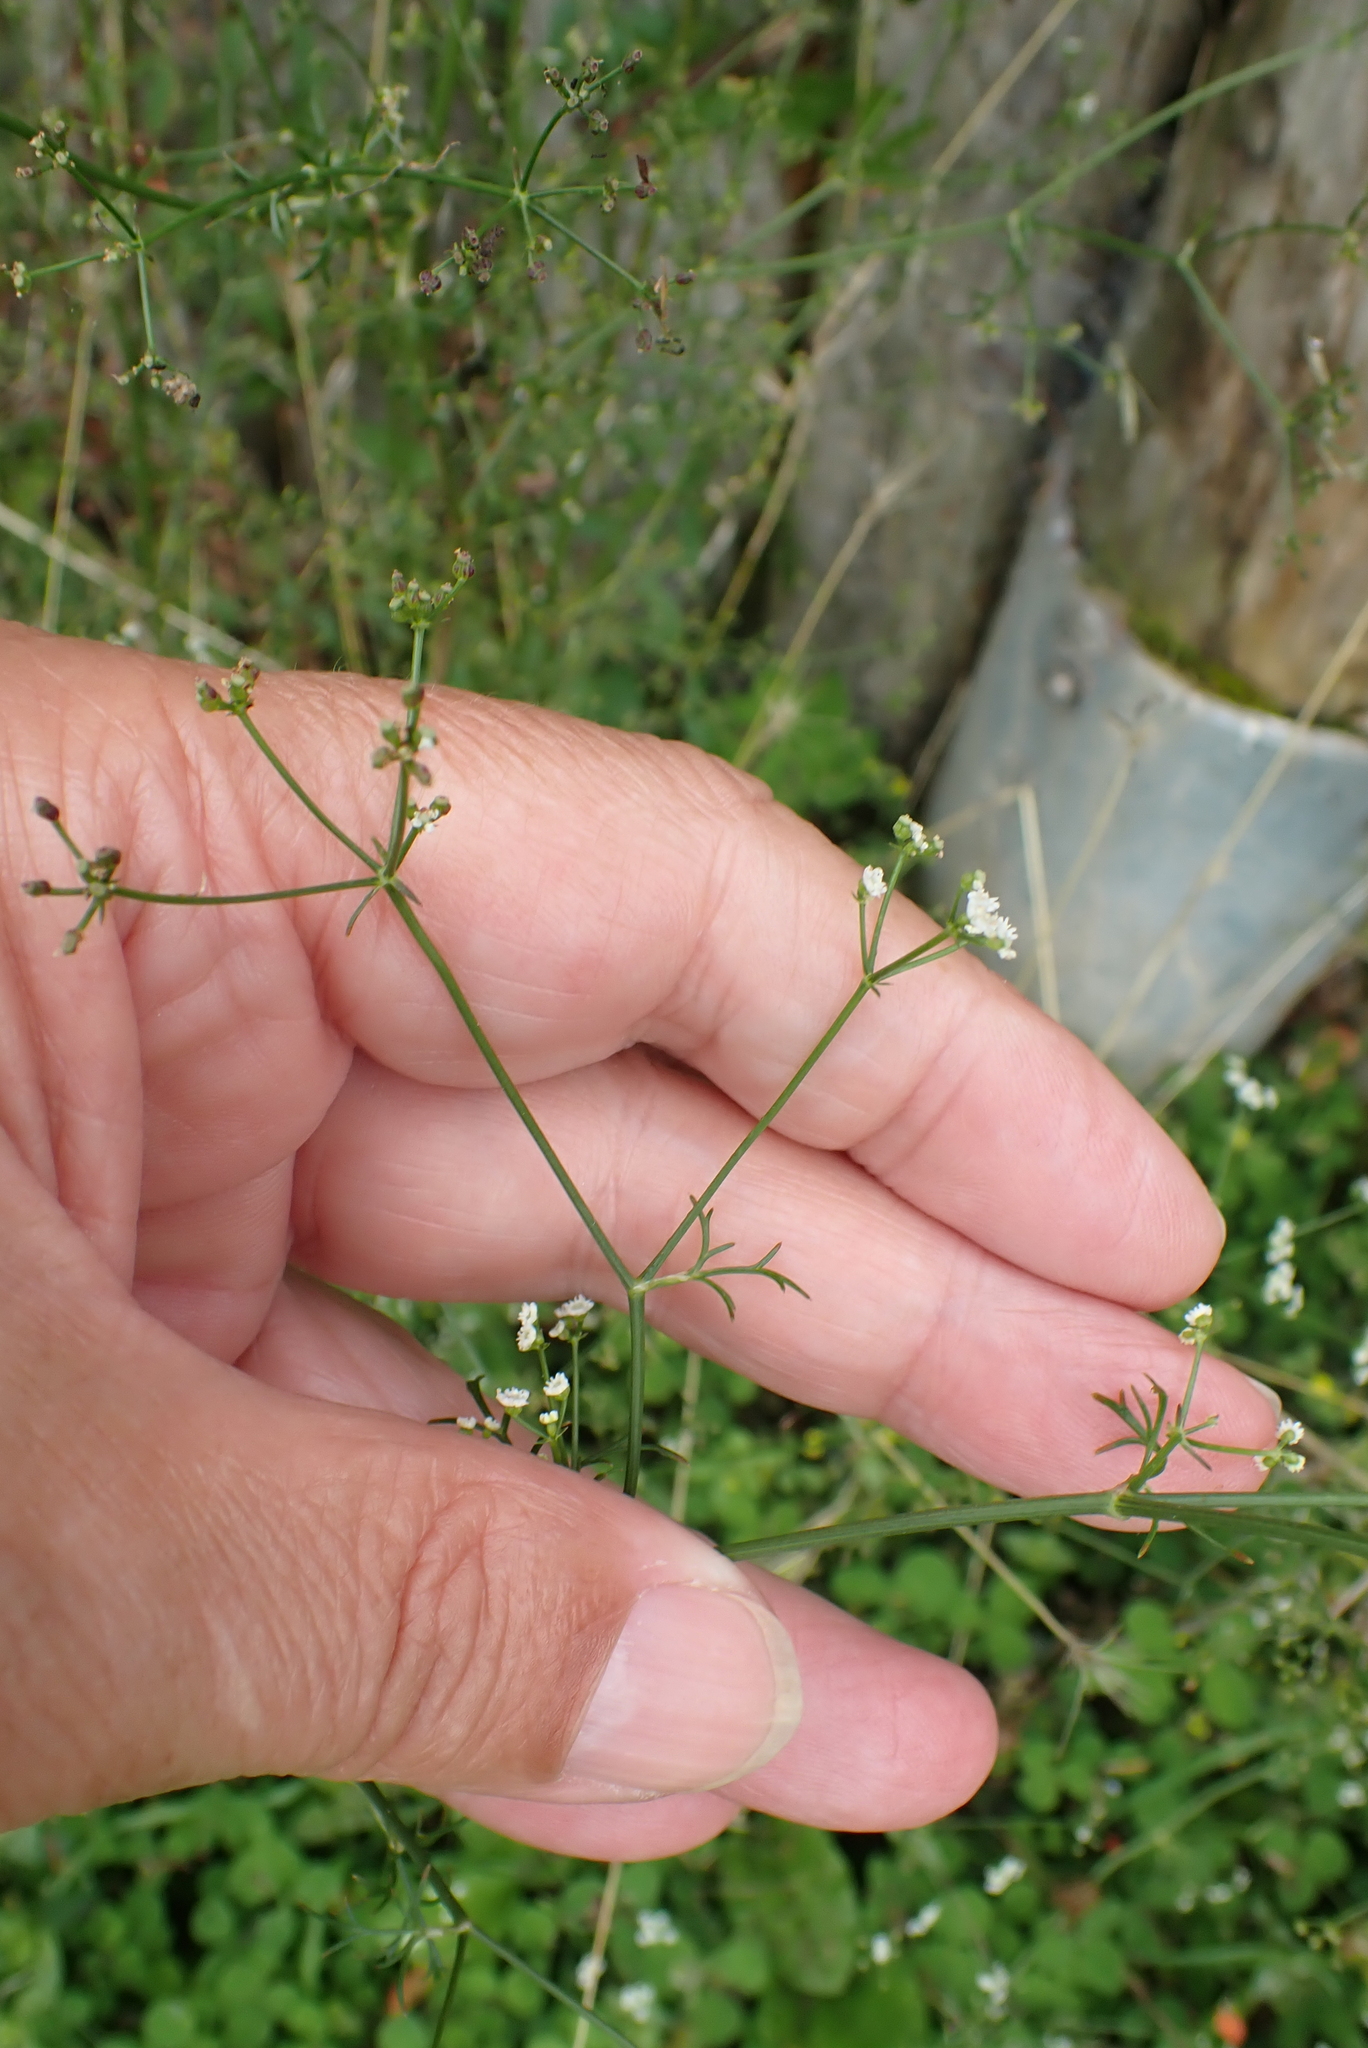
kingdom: Plantae
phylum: Tracheophyta
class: Magnoliopsida
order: Apiales
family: Apiaceae
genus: Sison
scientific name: Sison amomum
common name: Stone-parsley
